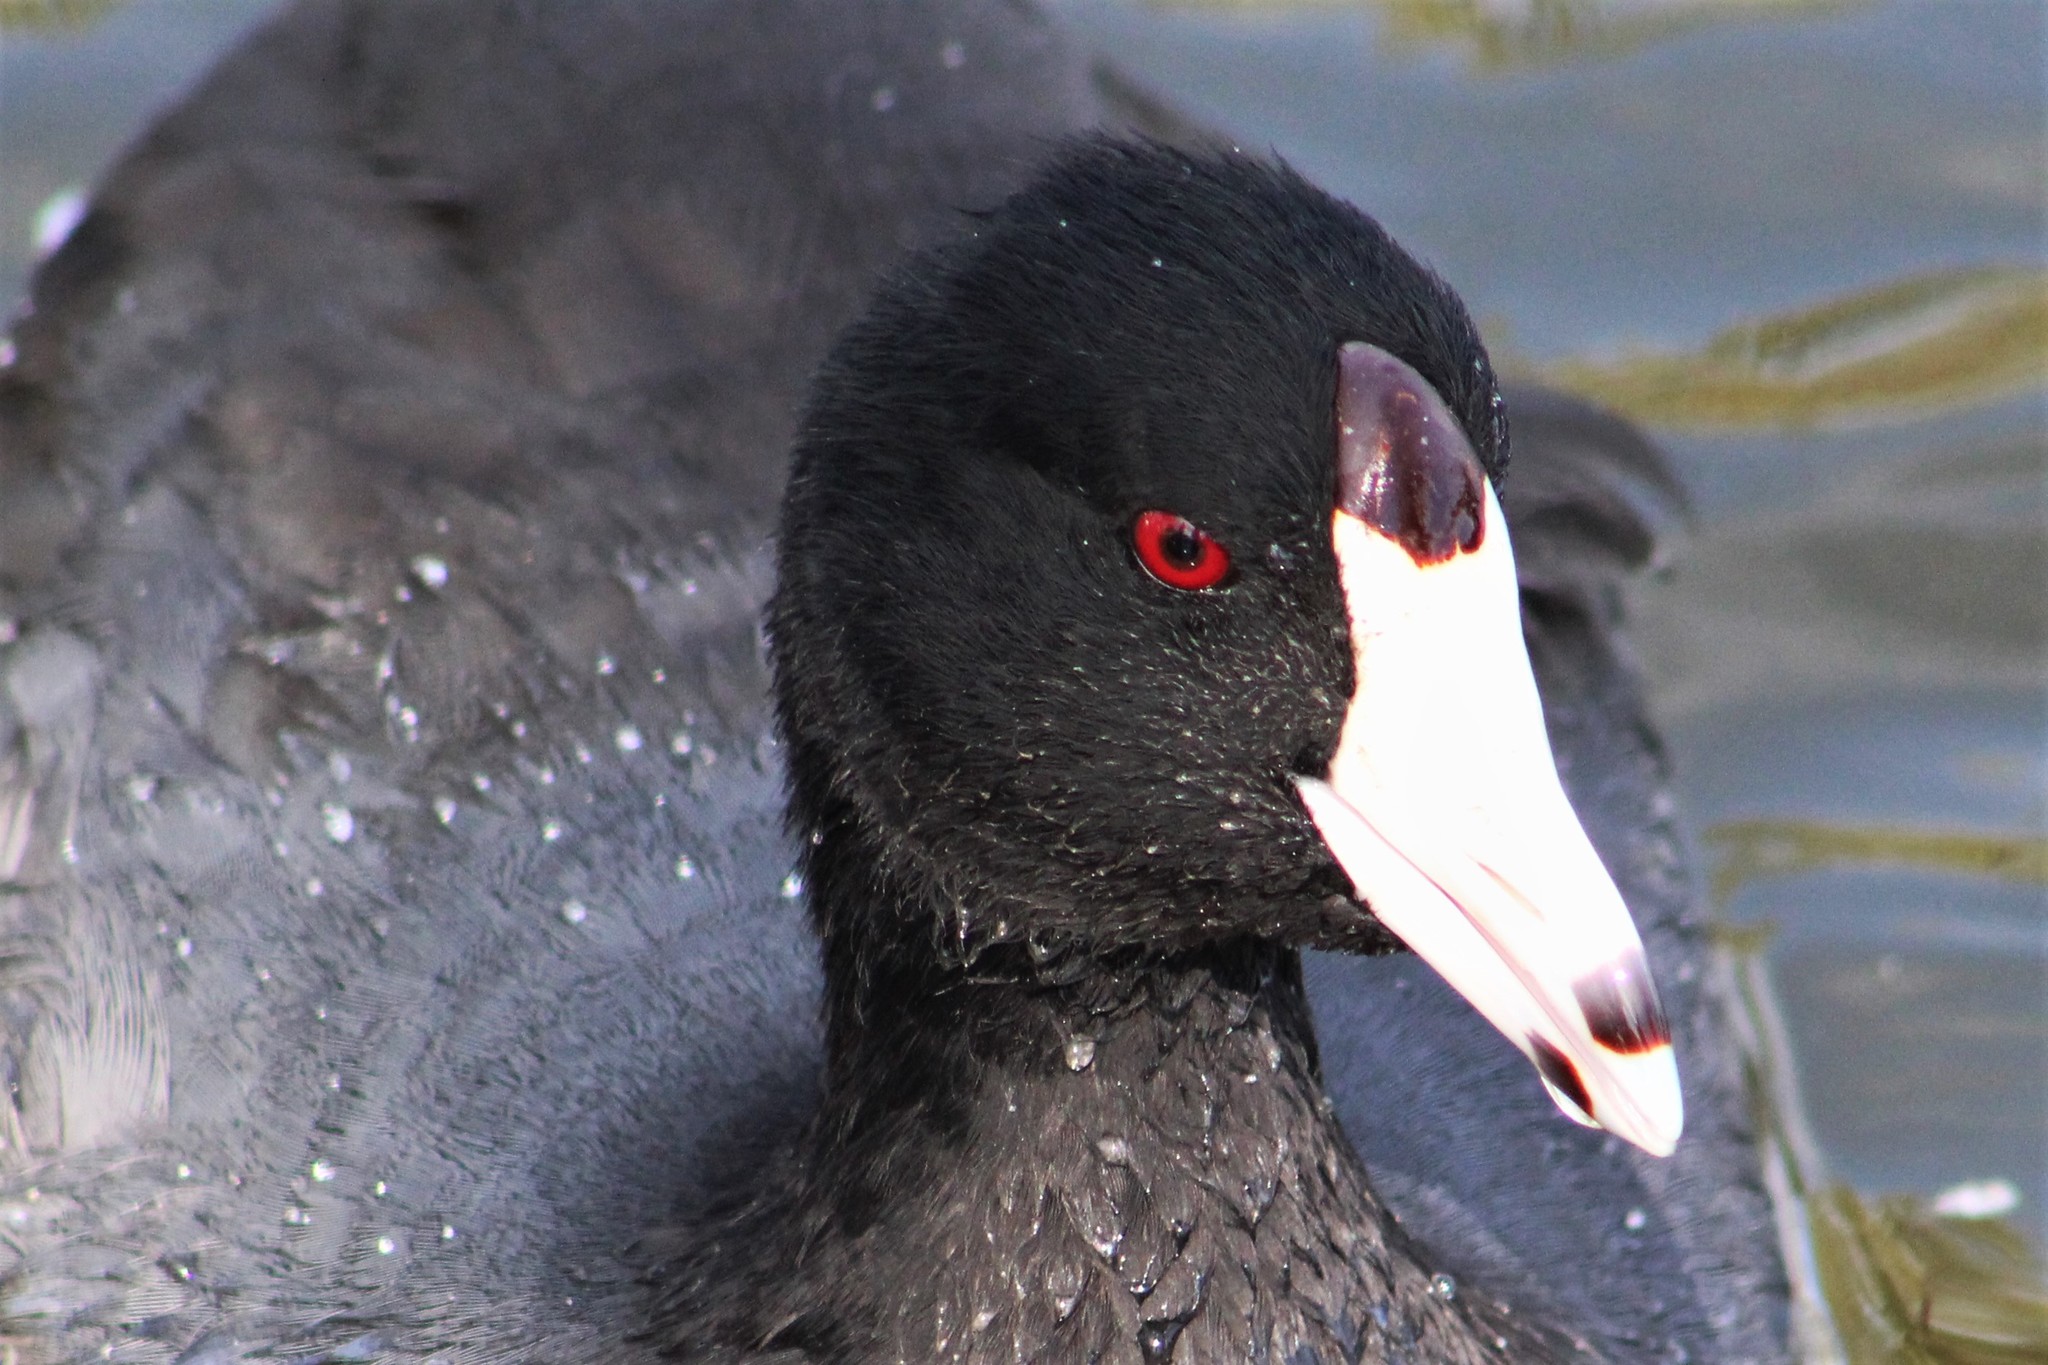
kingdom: Animalia
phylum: Chordata
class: Aves
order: Gruiformes
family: Rallidae
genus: Fulica
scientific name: Fulica americana
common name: American coot
